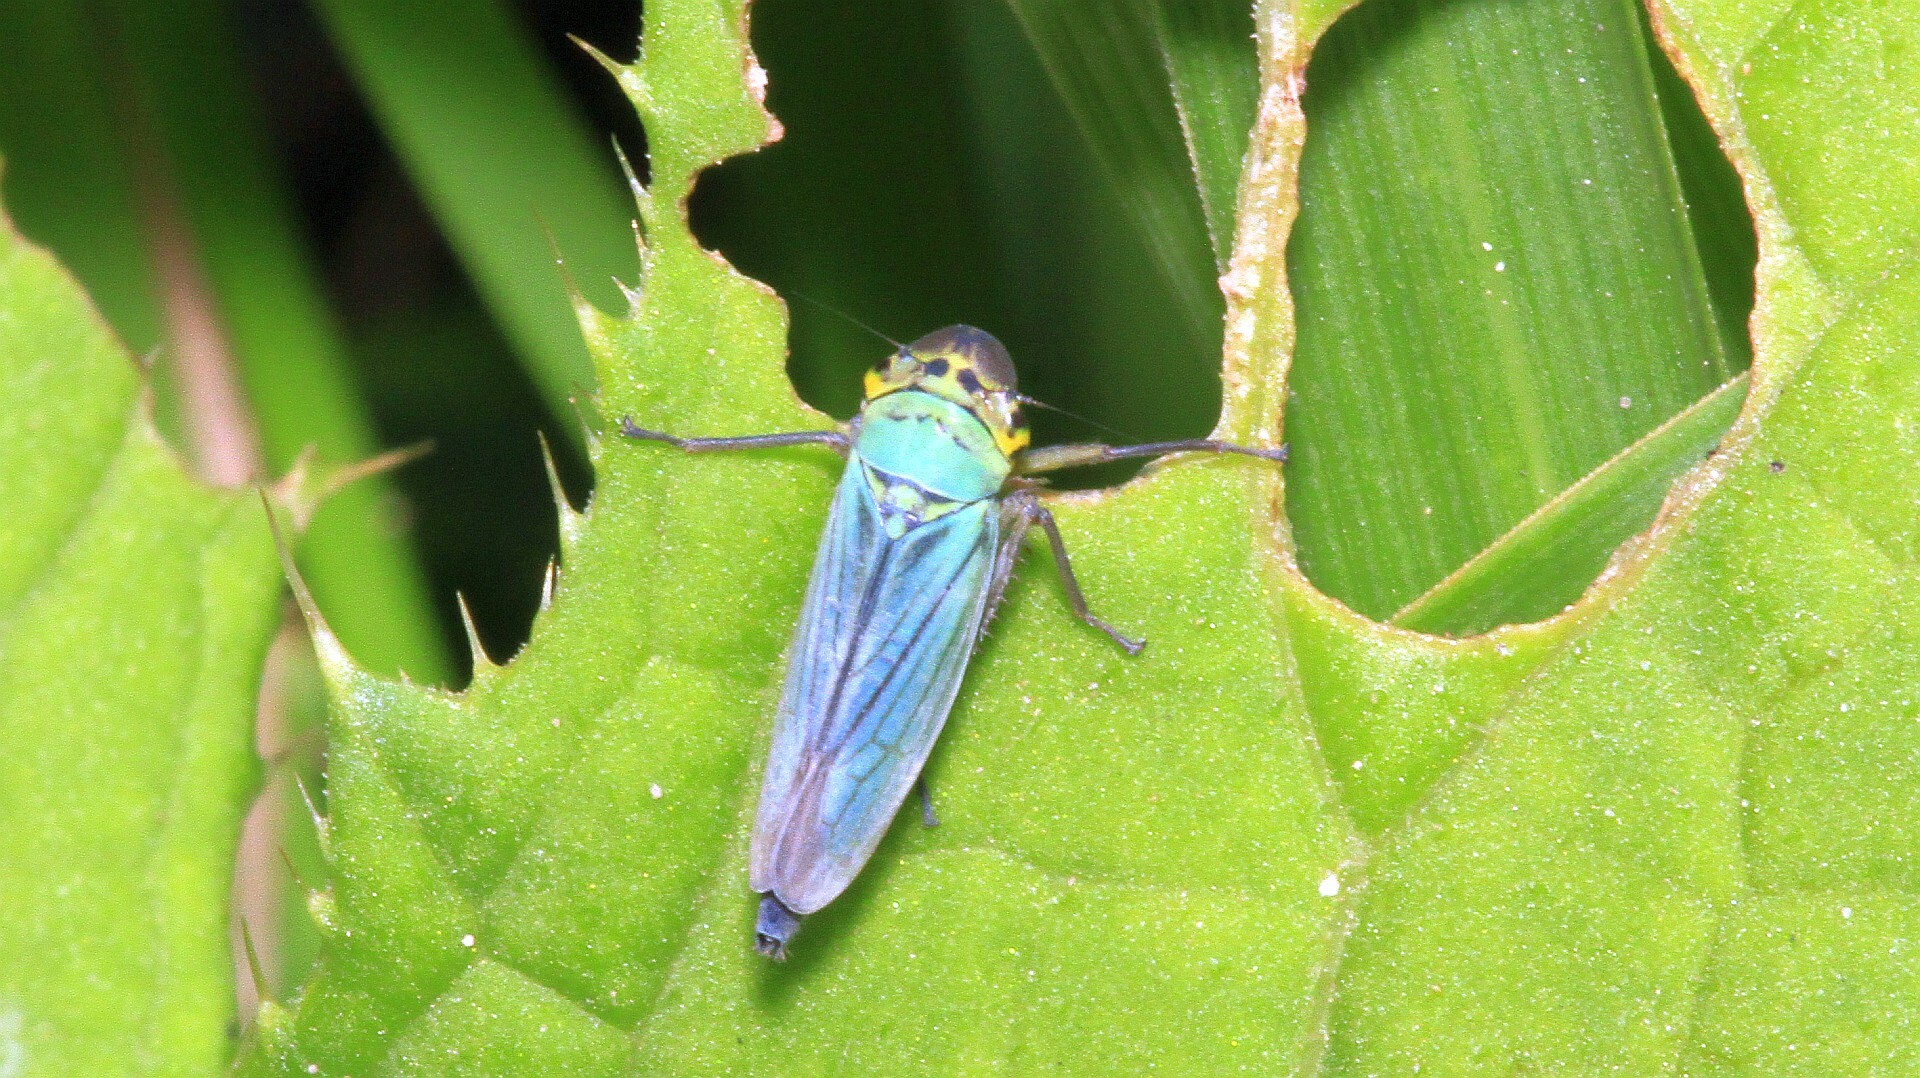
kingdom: Animalia
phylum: Arthropoda
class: Insecta
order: Hemiptera
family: Cicadellidae
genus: Cicadella
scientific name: Cicadella viridis
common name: Leafhopper
